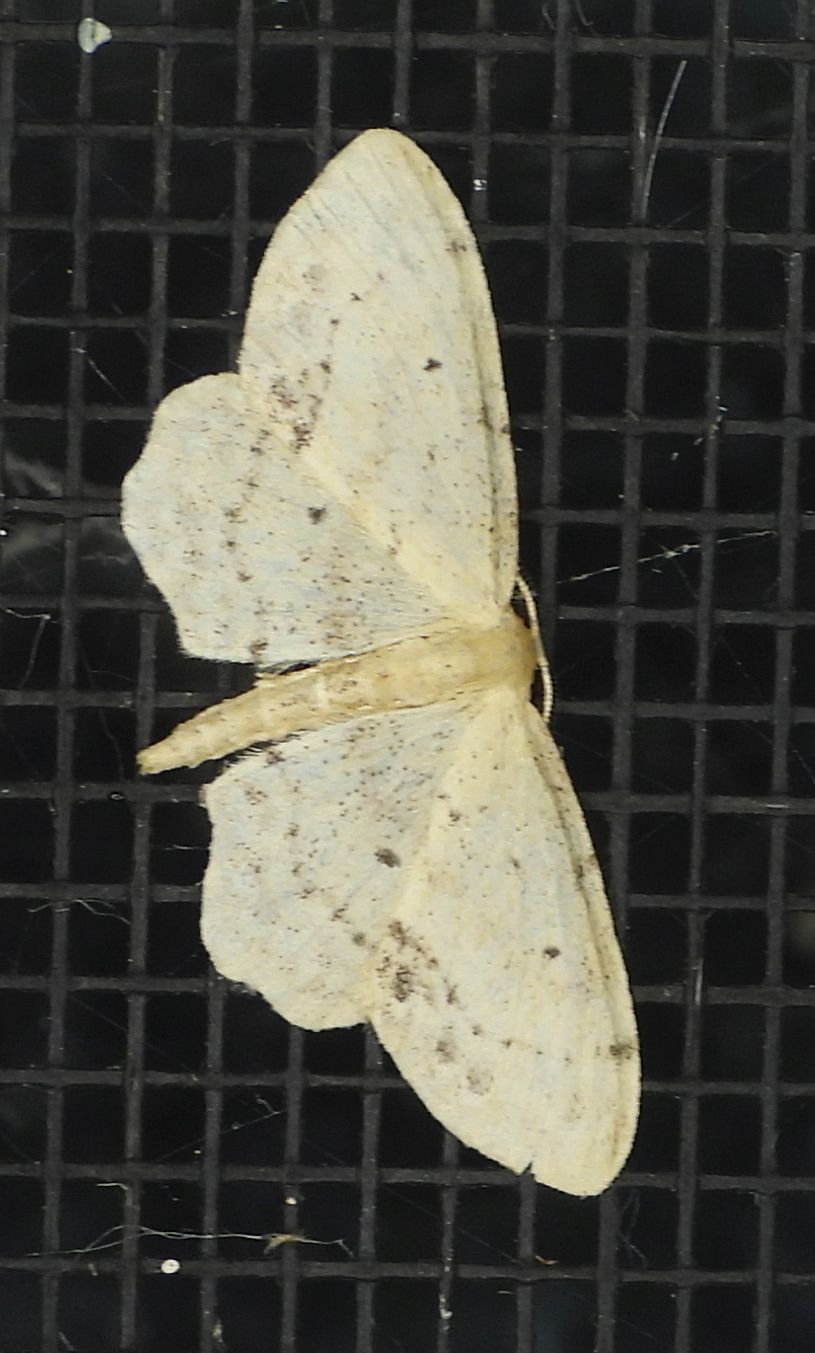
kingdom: Animalia
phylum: Arthropoda
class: Insecta
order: Lepidoptera
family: Geometridae
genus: Idaea
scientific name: Idaea dimidiata
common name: Single-dotted wave
